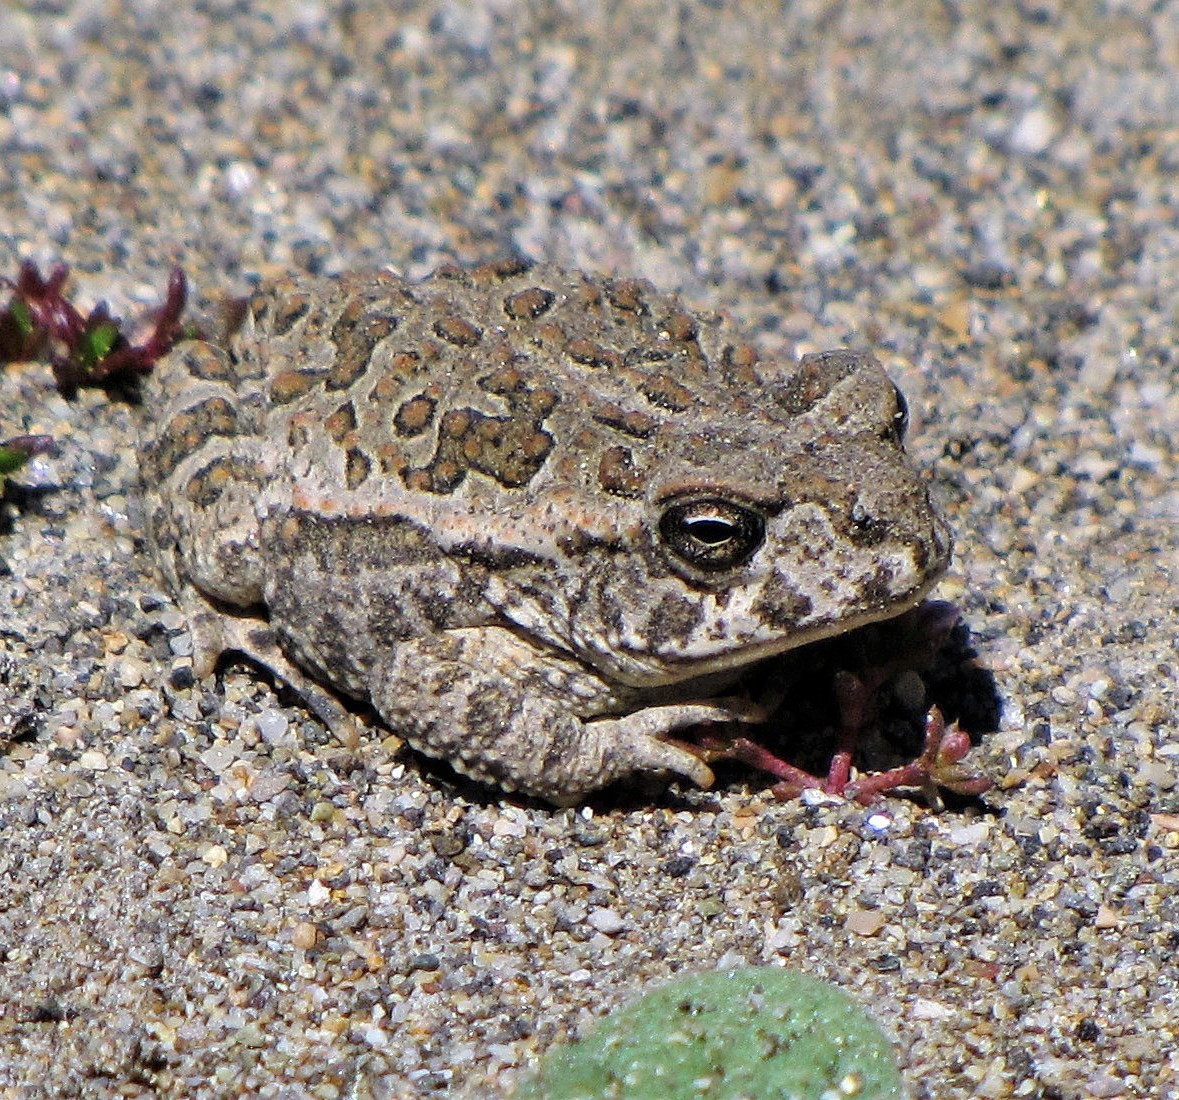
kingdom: Animalia
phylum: Chordata
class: Amphibia
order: Anura
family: Bufonidae
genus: Rhinella
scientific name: Rhinella arenarum
